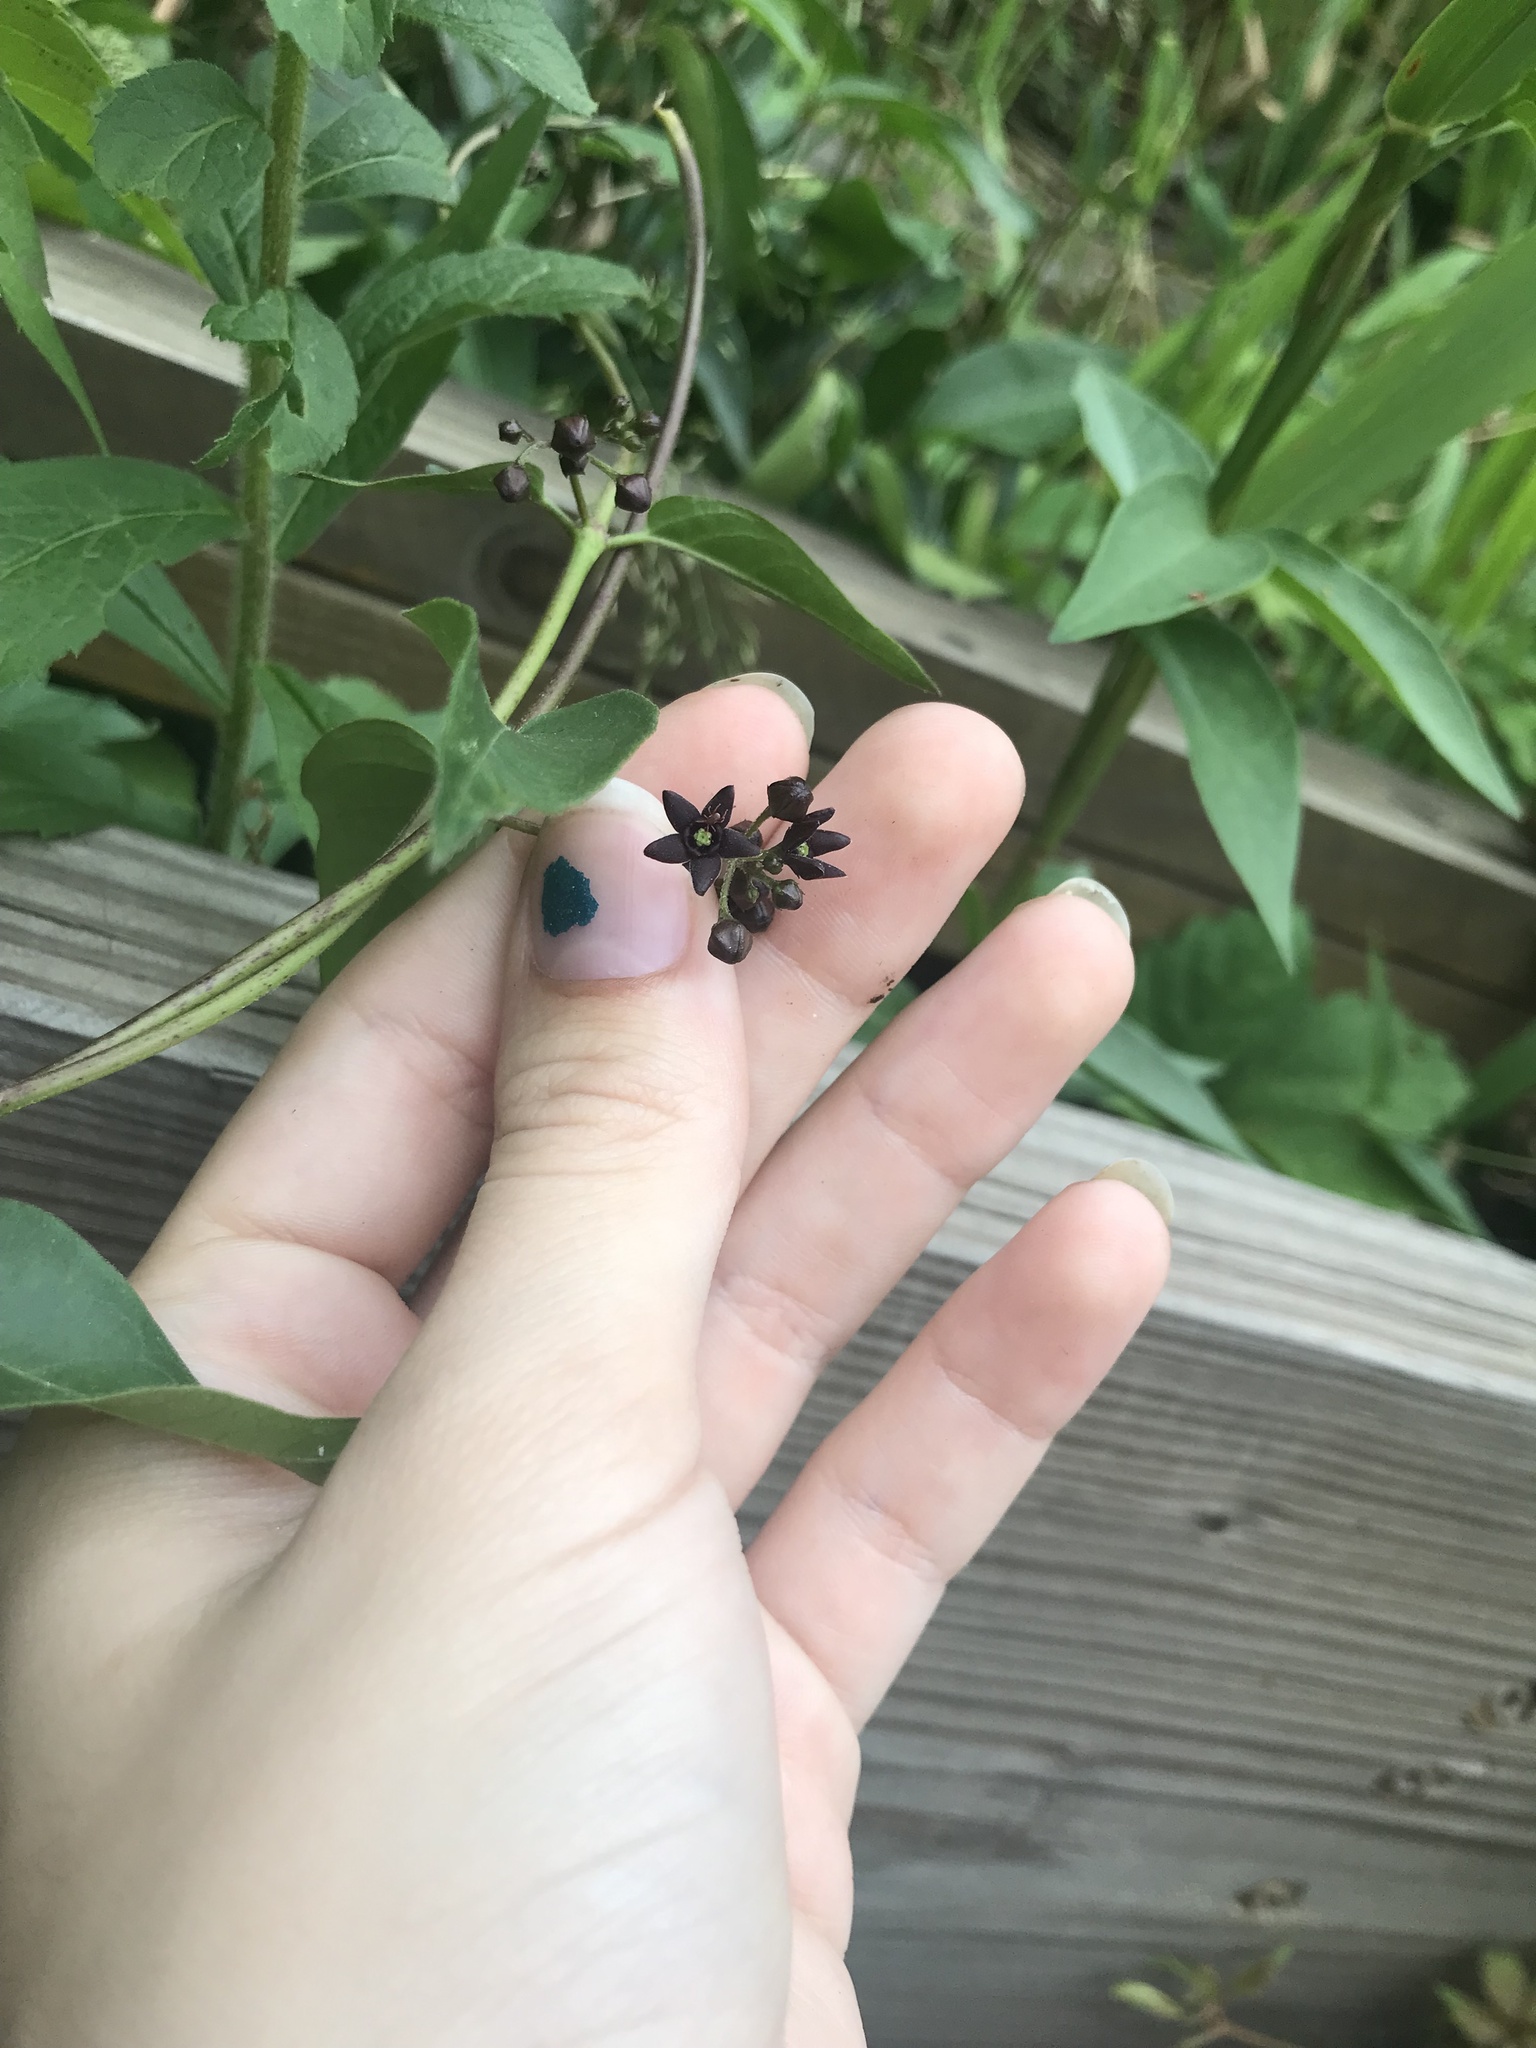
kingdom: Plantae
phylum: Tracheophyta
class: Magnoliopsida
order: Gentianales
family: Apocynaceae
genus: Vincetoxicum
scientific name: Vincetoxicum nigrum
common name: Black swallow-wort
